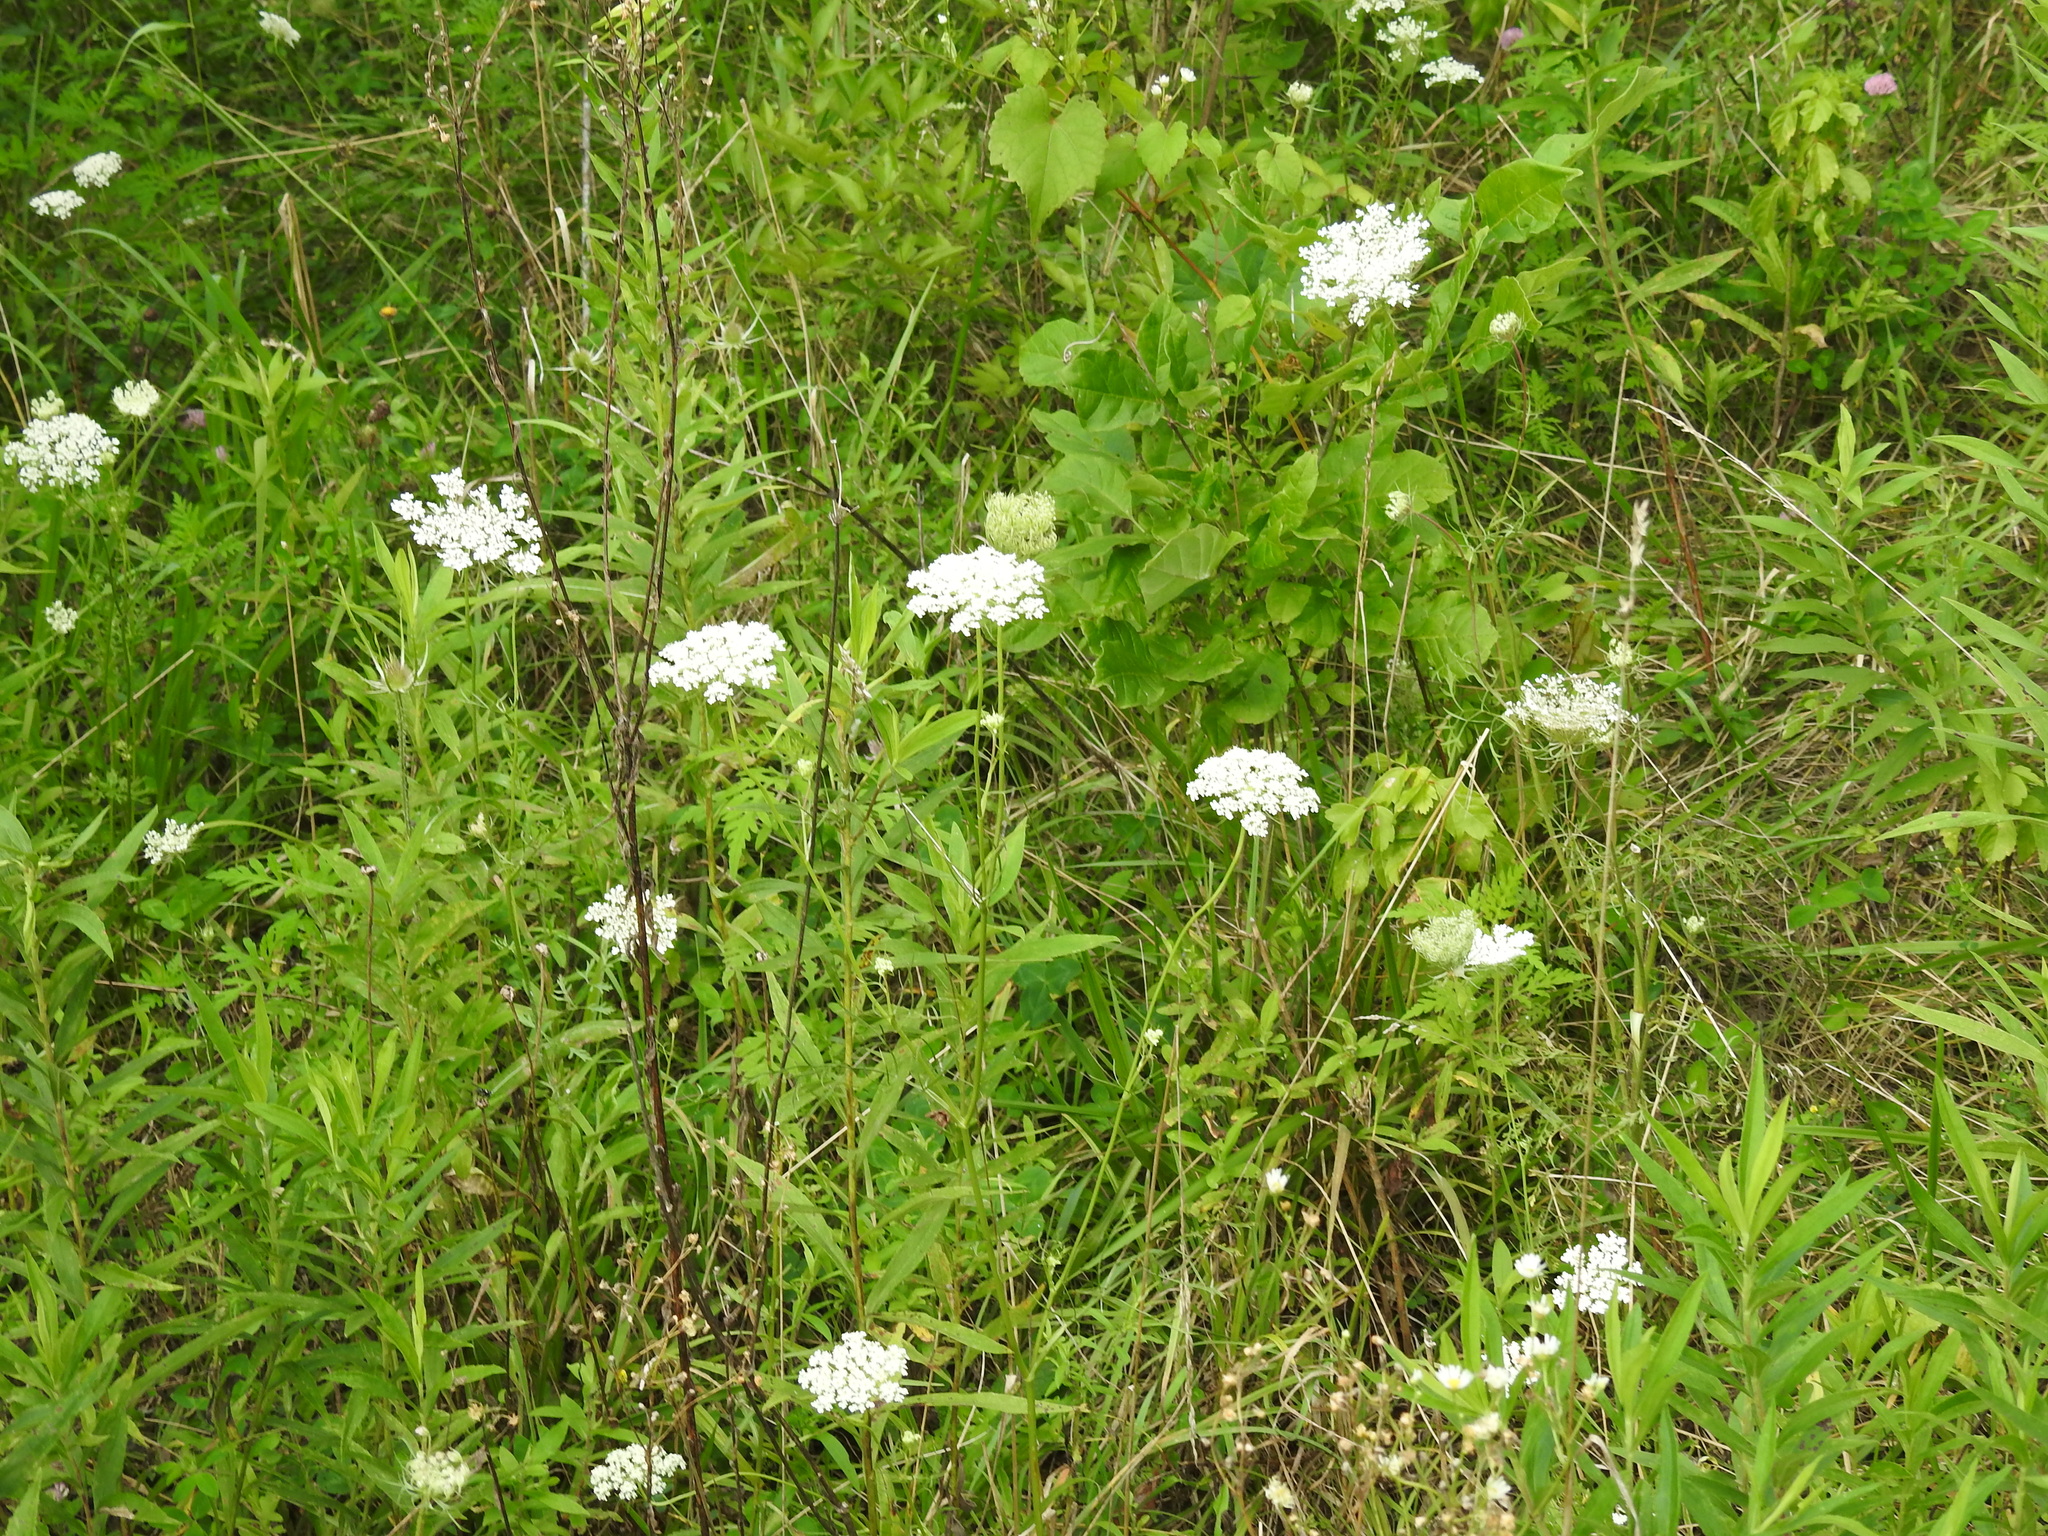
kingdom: Plantae
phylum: Tracheophyta
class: Magnoliopsida
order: Apiales
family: Apiaceae
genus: Daucus
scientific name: Daucus carota
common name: Wild carrot
